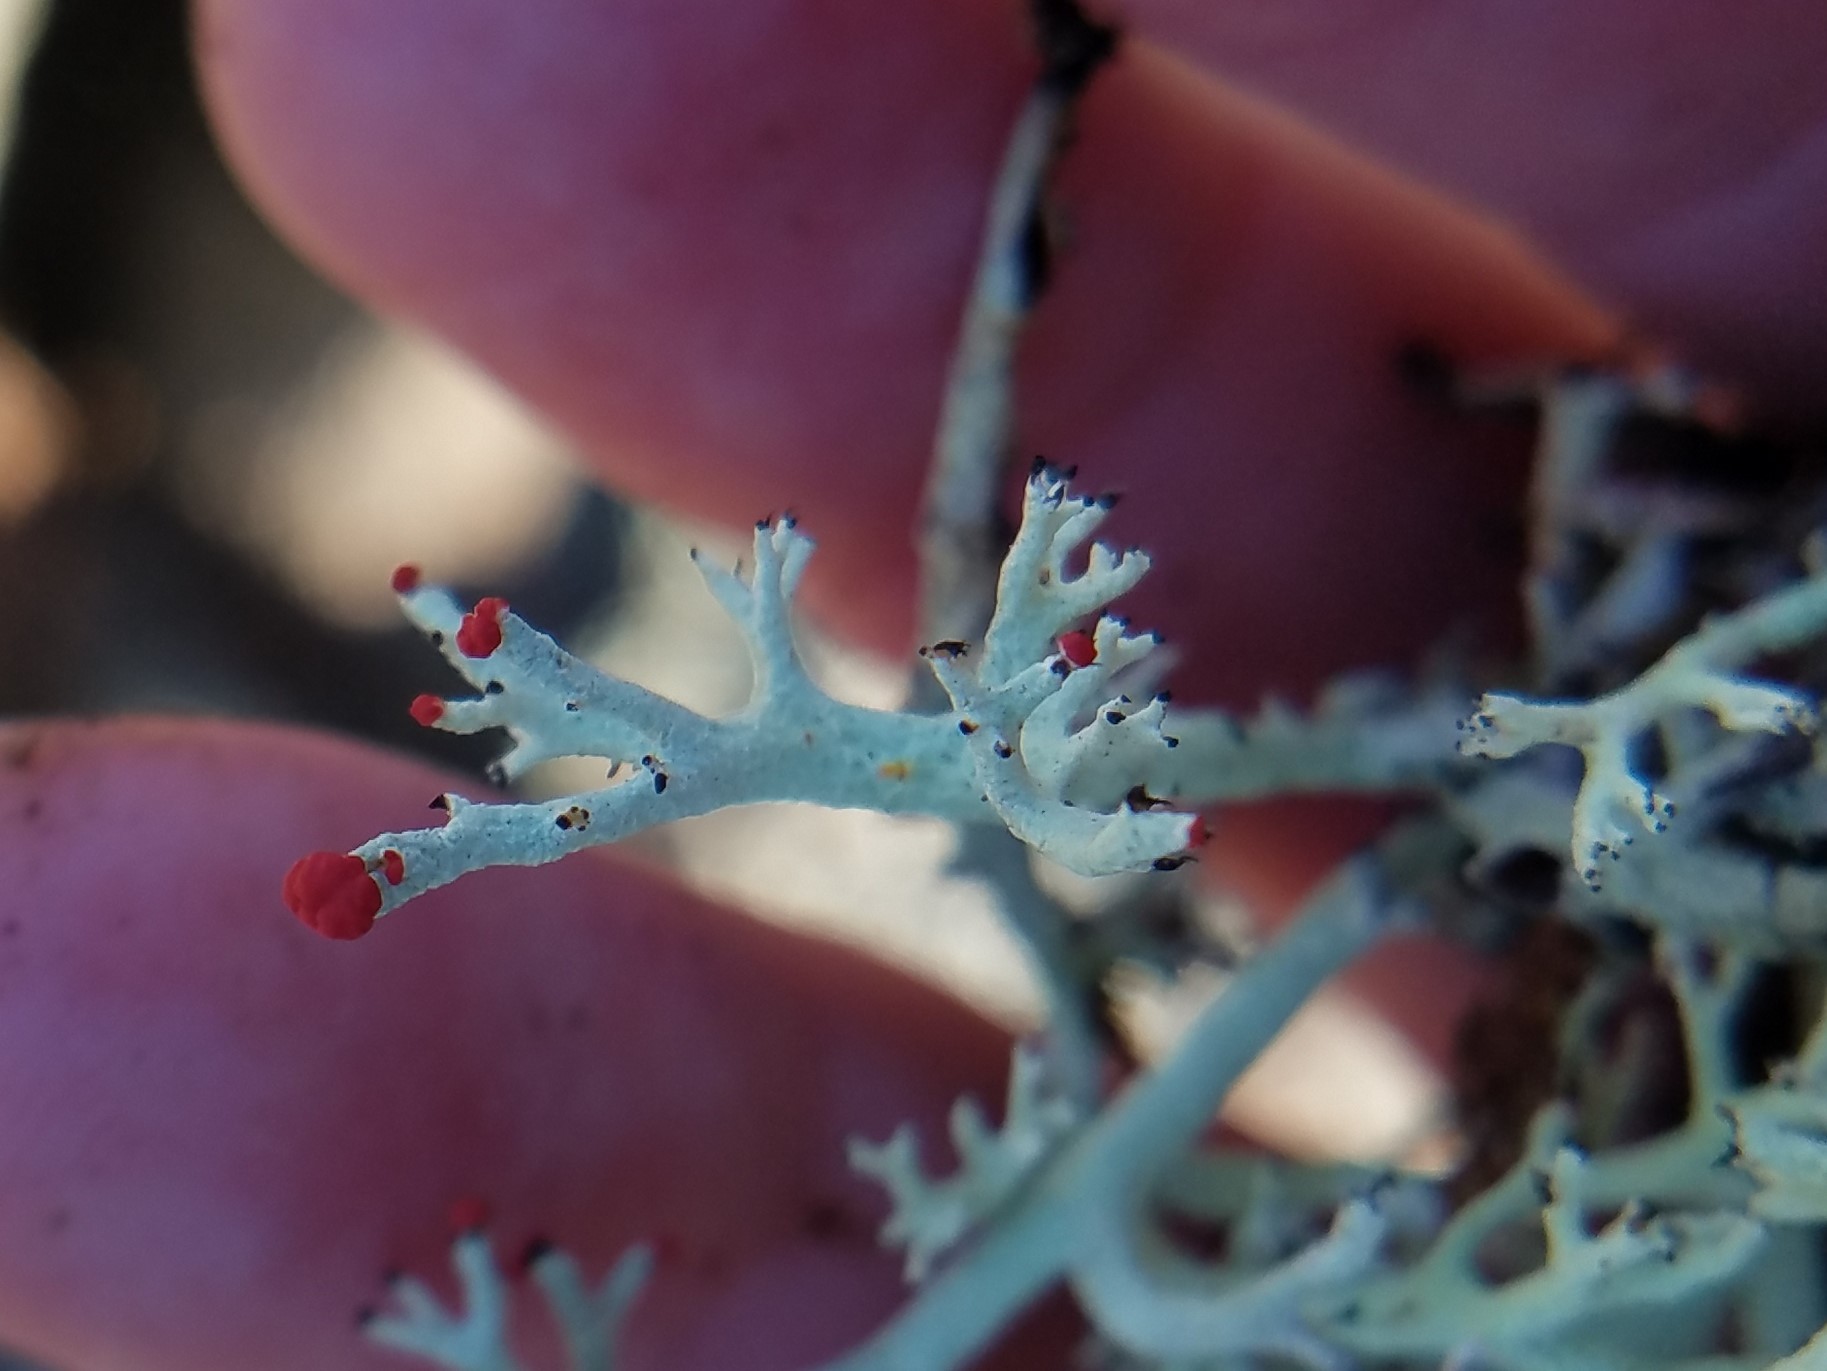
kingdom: Fungi
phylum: Ascomycota
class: Lecanoromycetes
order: Lecanorales
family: Cladoniaceae
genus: Cladonia
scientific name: Cladonia leporina
